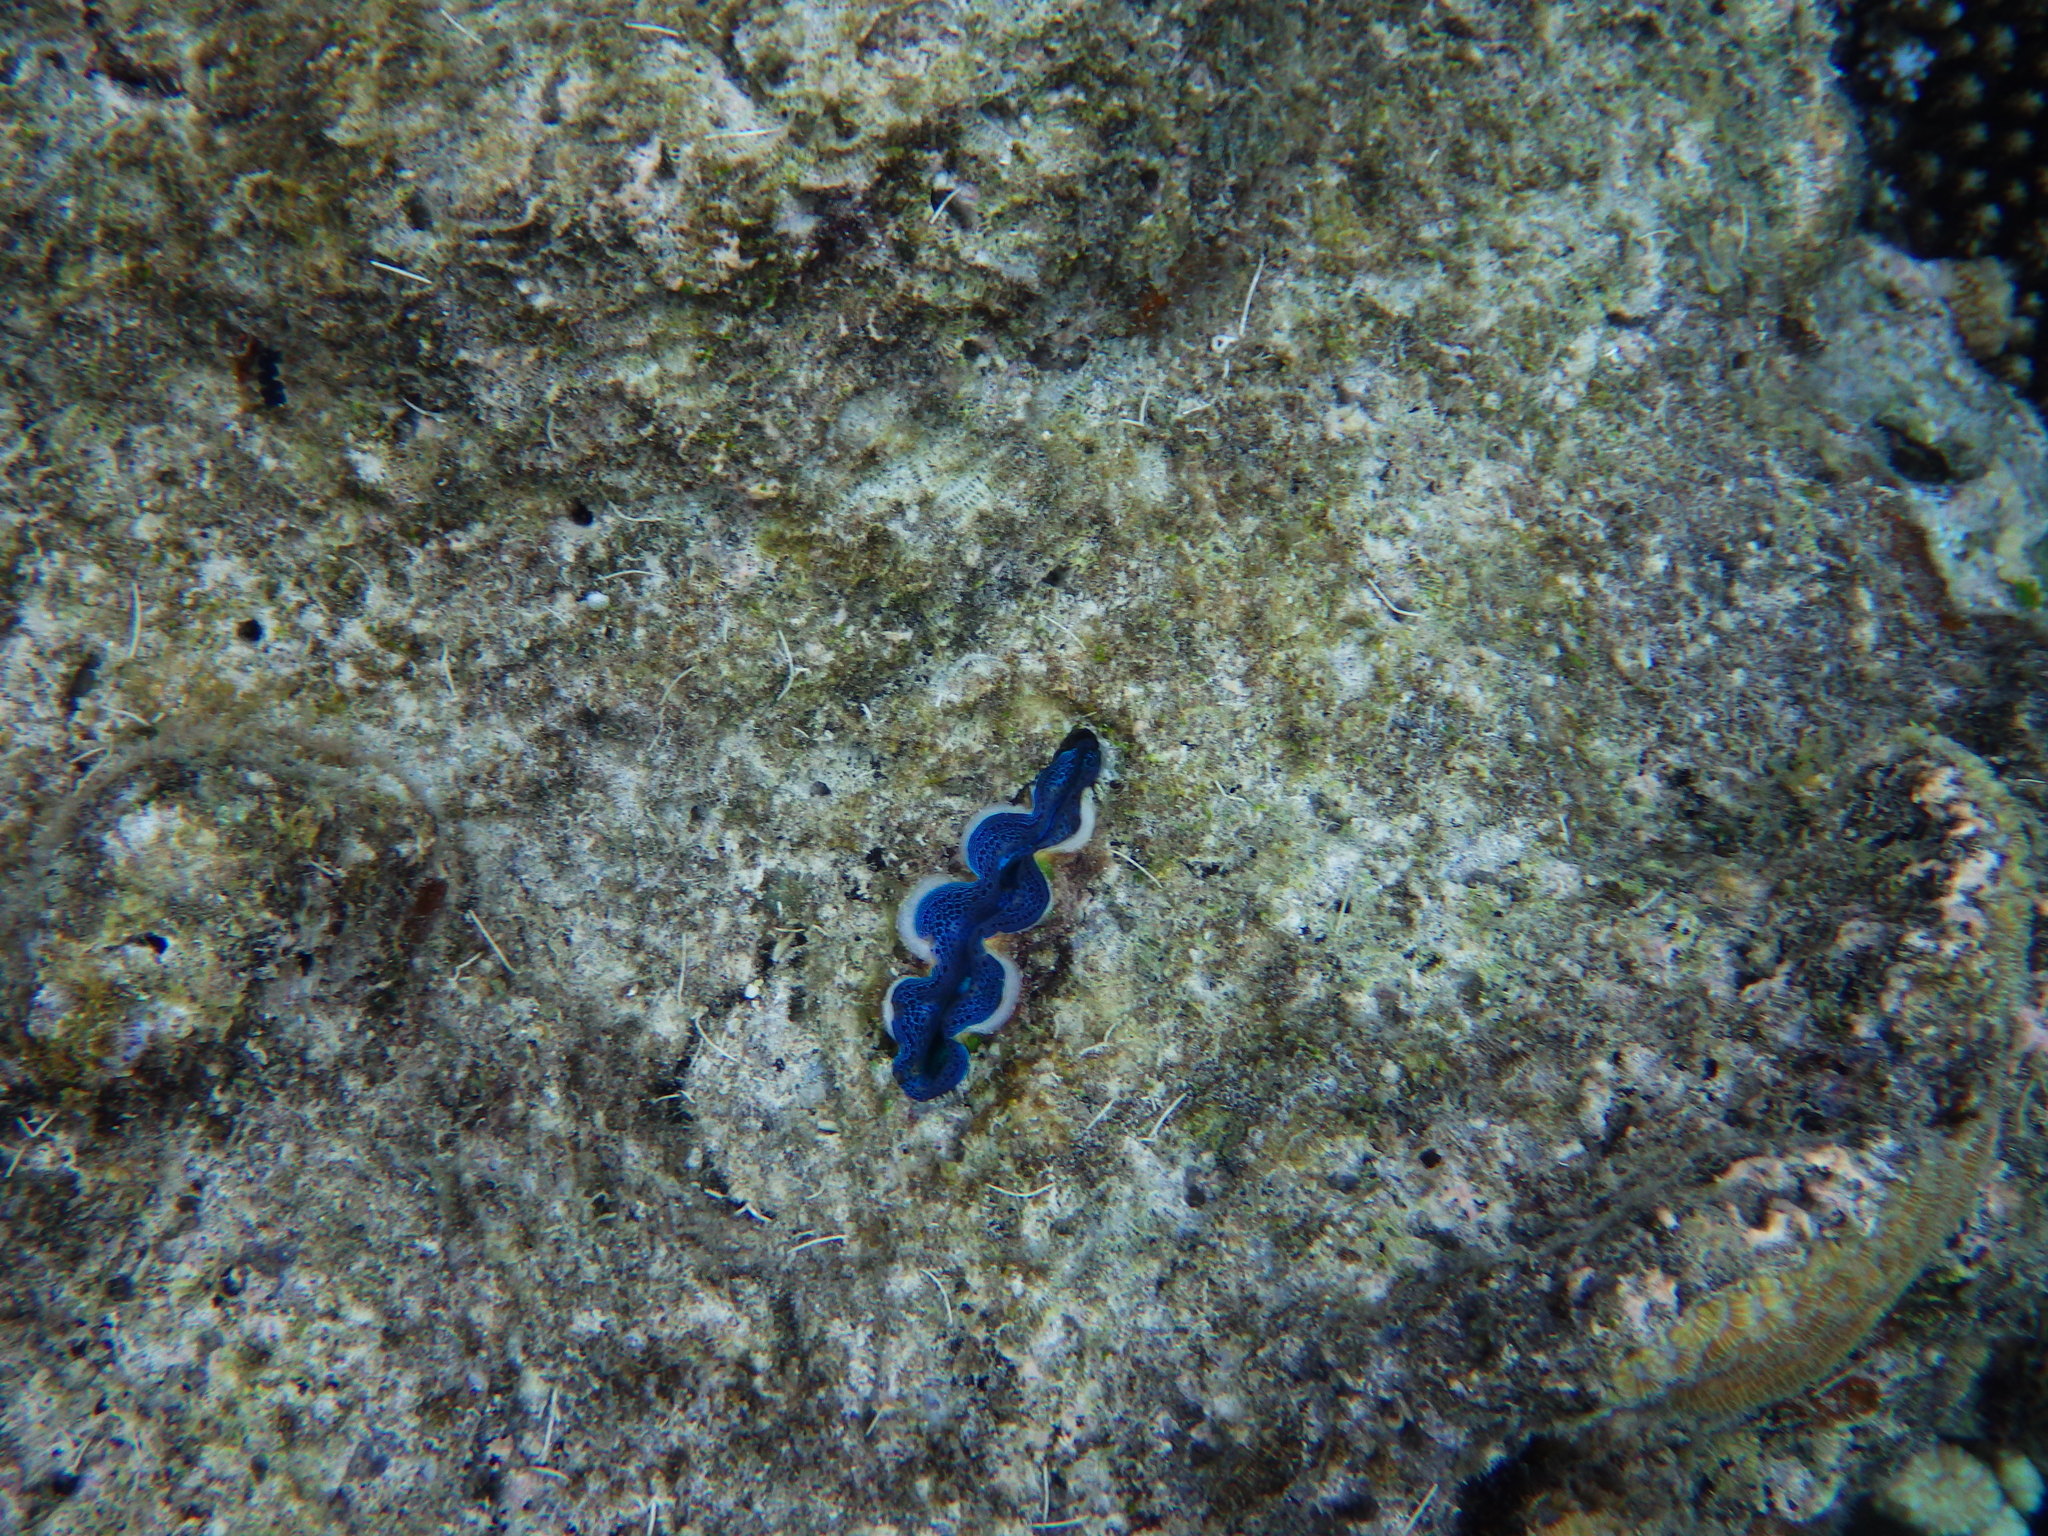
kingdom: Animalia
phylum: Mollusca
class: Bivalvia
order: Cardiida
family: Cardiidae
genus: Tridacna
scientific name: Tridacna crocea
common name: Boring clam
